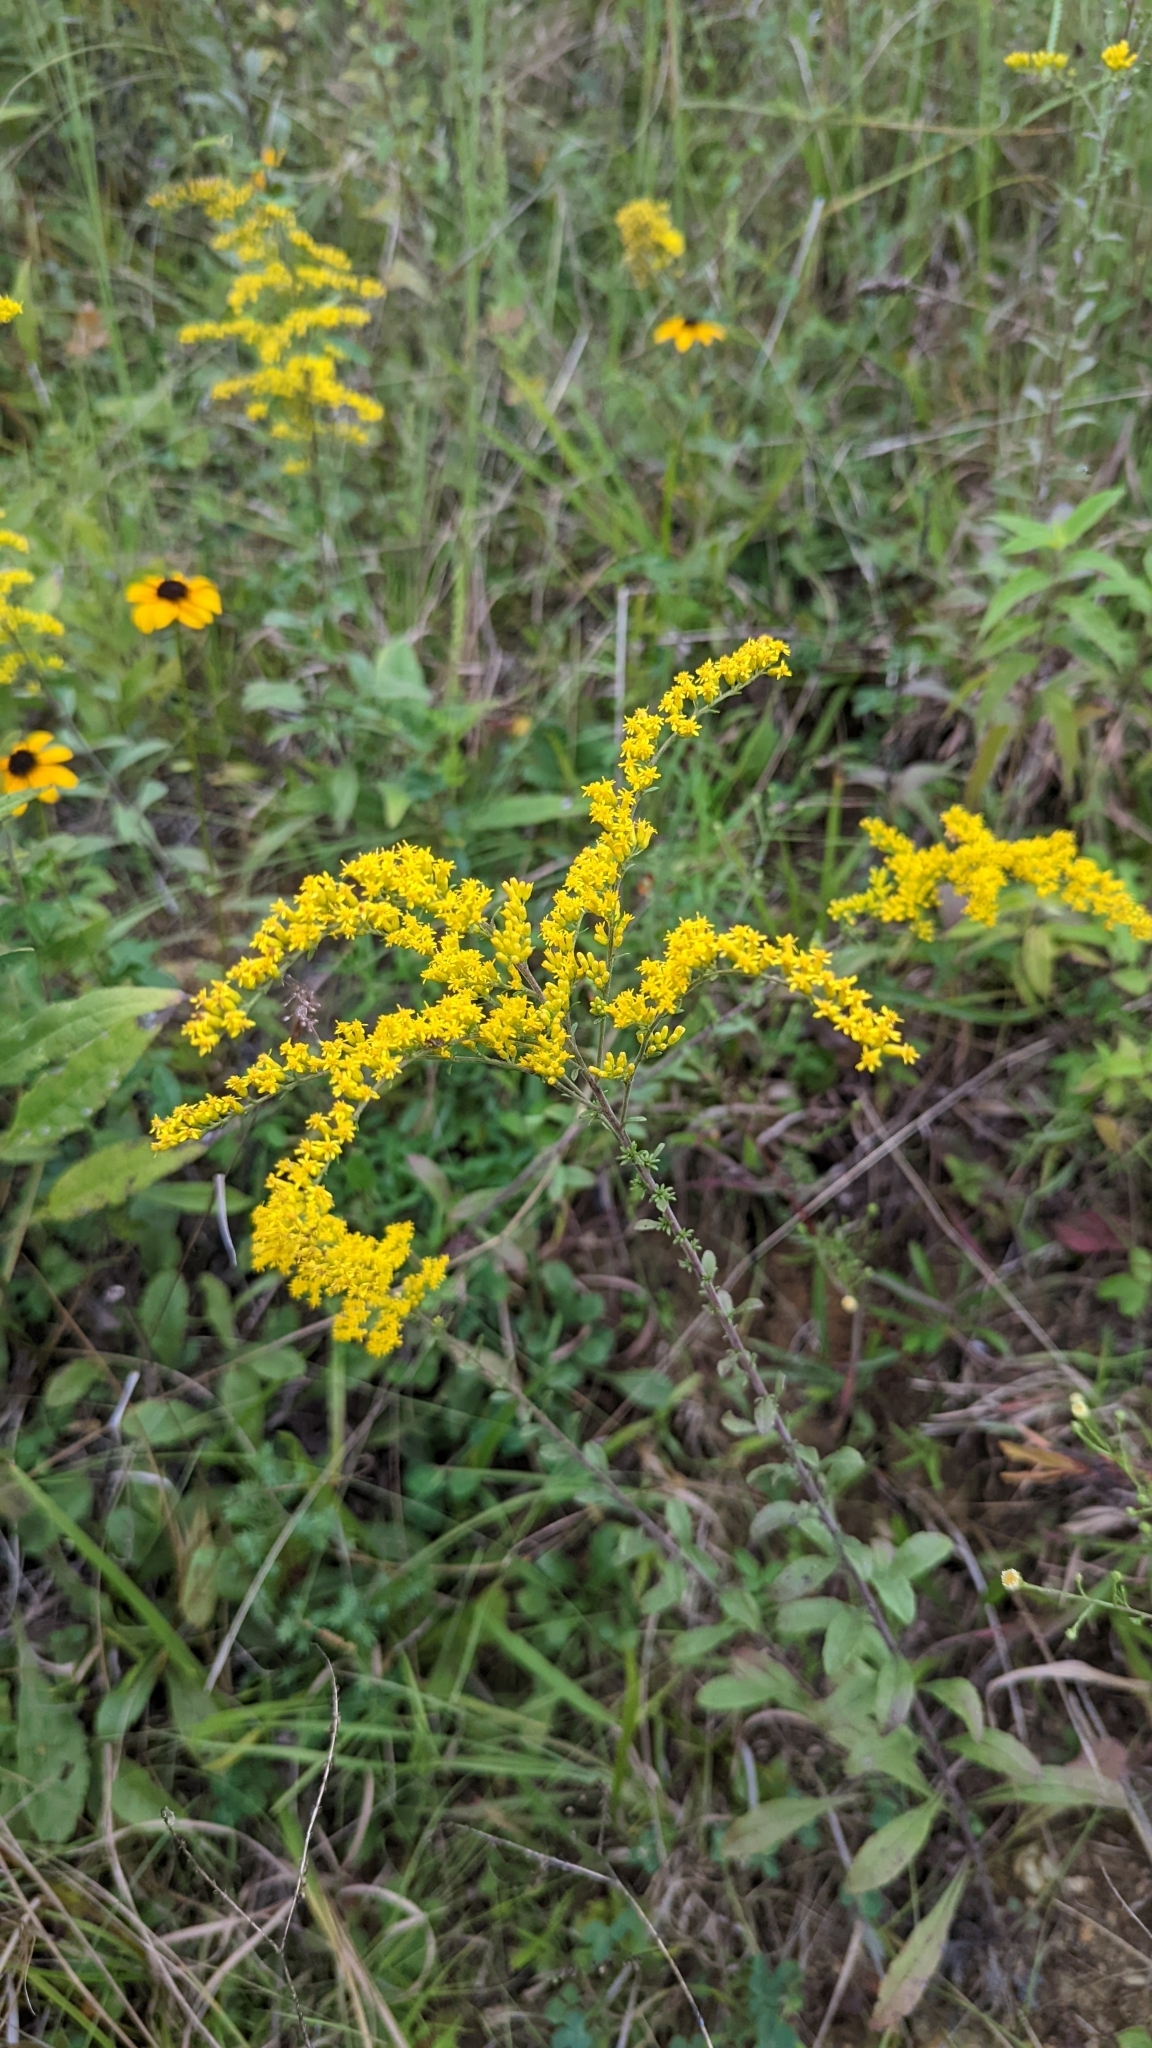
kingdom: Plantae
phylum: Tracheophyta
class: Magnoliopsida
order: Asterales
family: Asteraceae
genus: Solidago
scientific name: Solidago nemoralis
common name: Grey goldenrod
